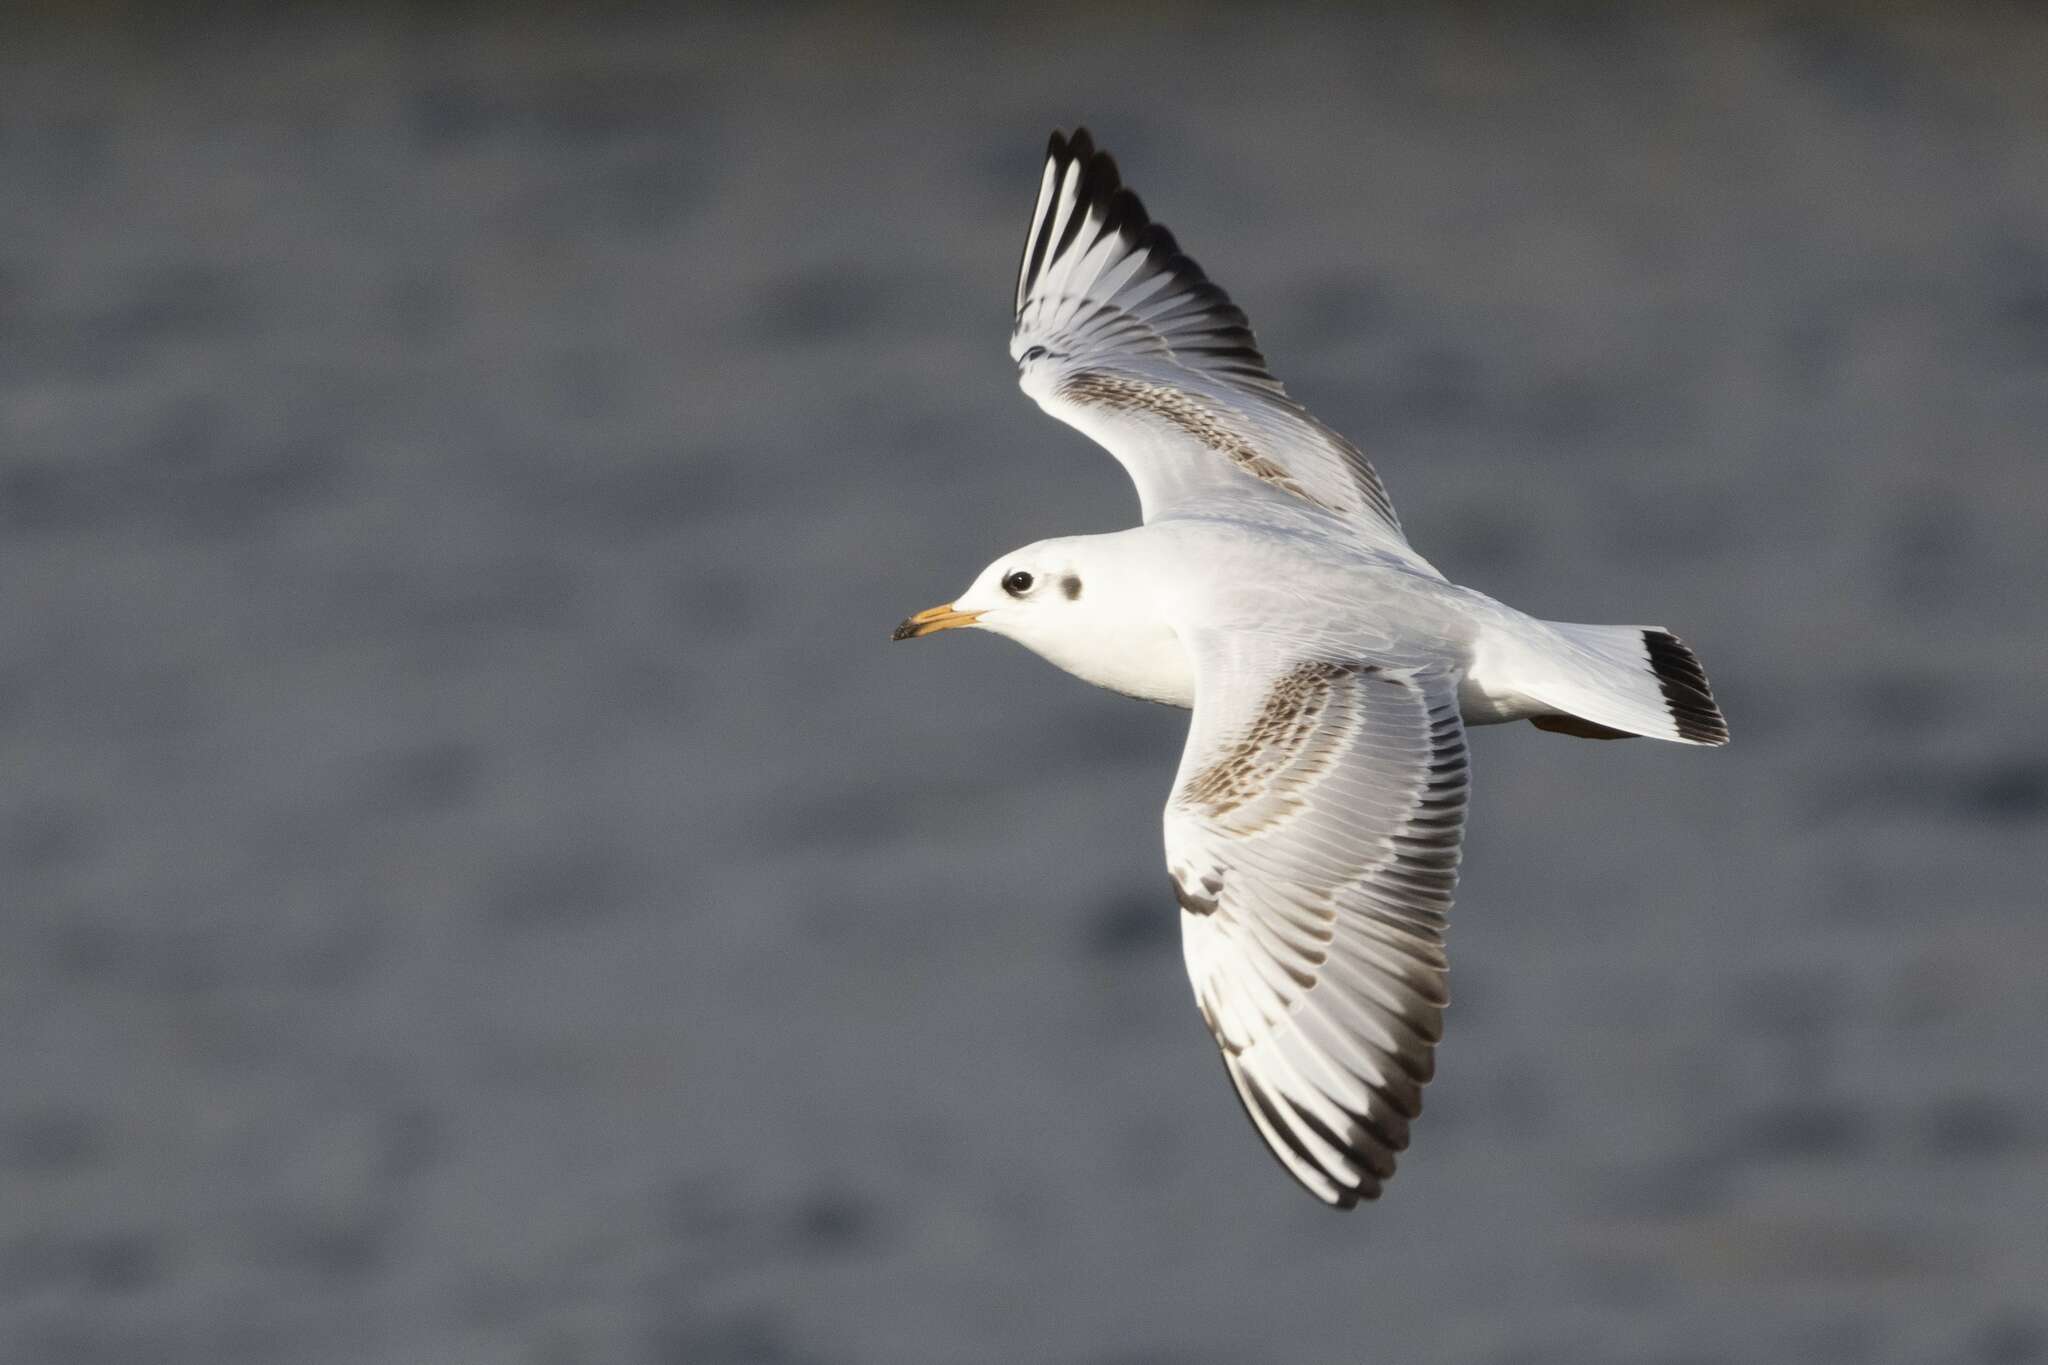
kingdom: Animalia
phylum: Chordata
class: Aves
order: Charadriiformes
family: Laridae
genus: Chroicocephalus
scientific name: Chroicocephalus ridibundus
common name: Black-headed gull
